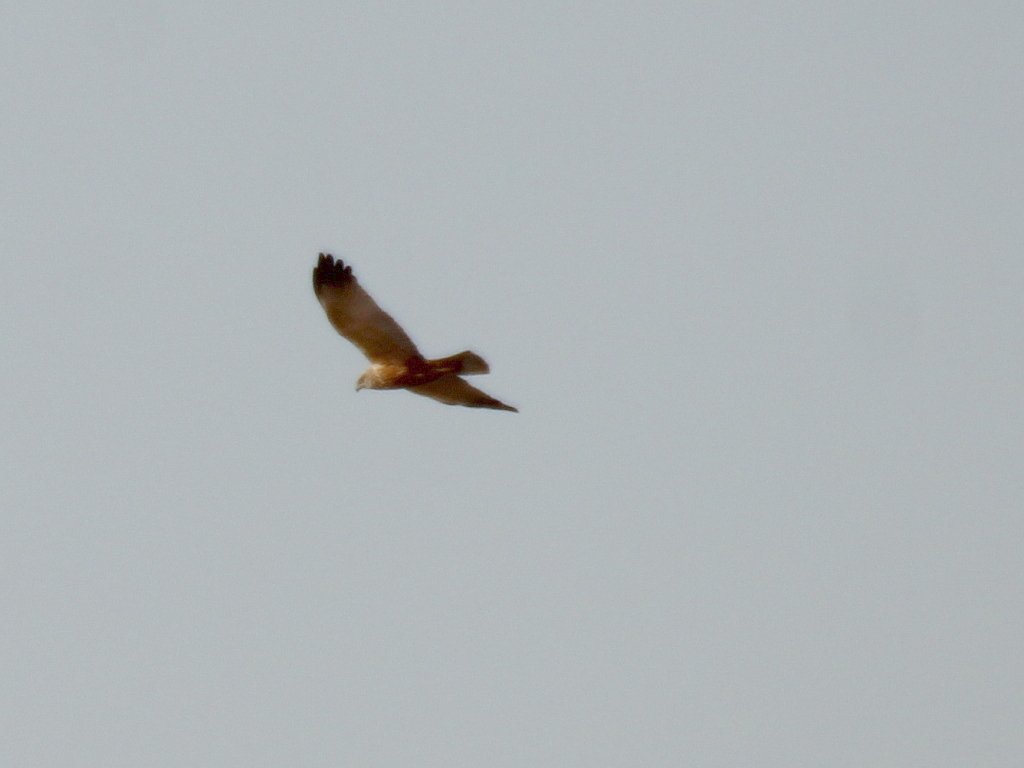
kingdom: Animalia
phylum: Chordata
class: Aves
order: Accipitriformes
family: Accipitridae
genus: Circus
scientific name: Circus aeruginosus
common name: Western marsh harrier
